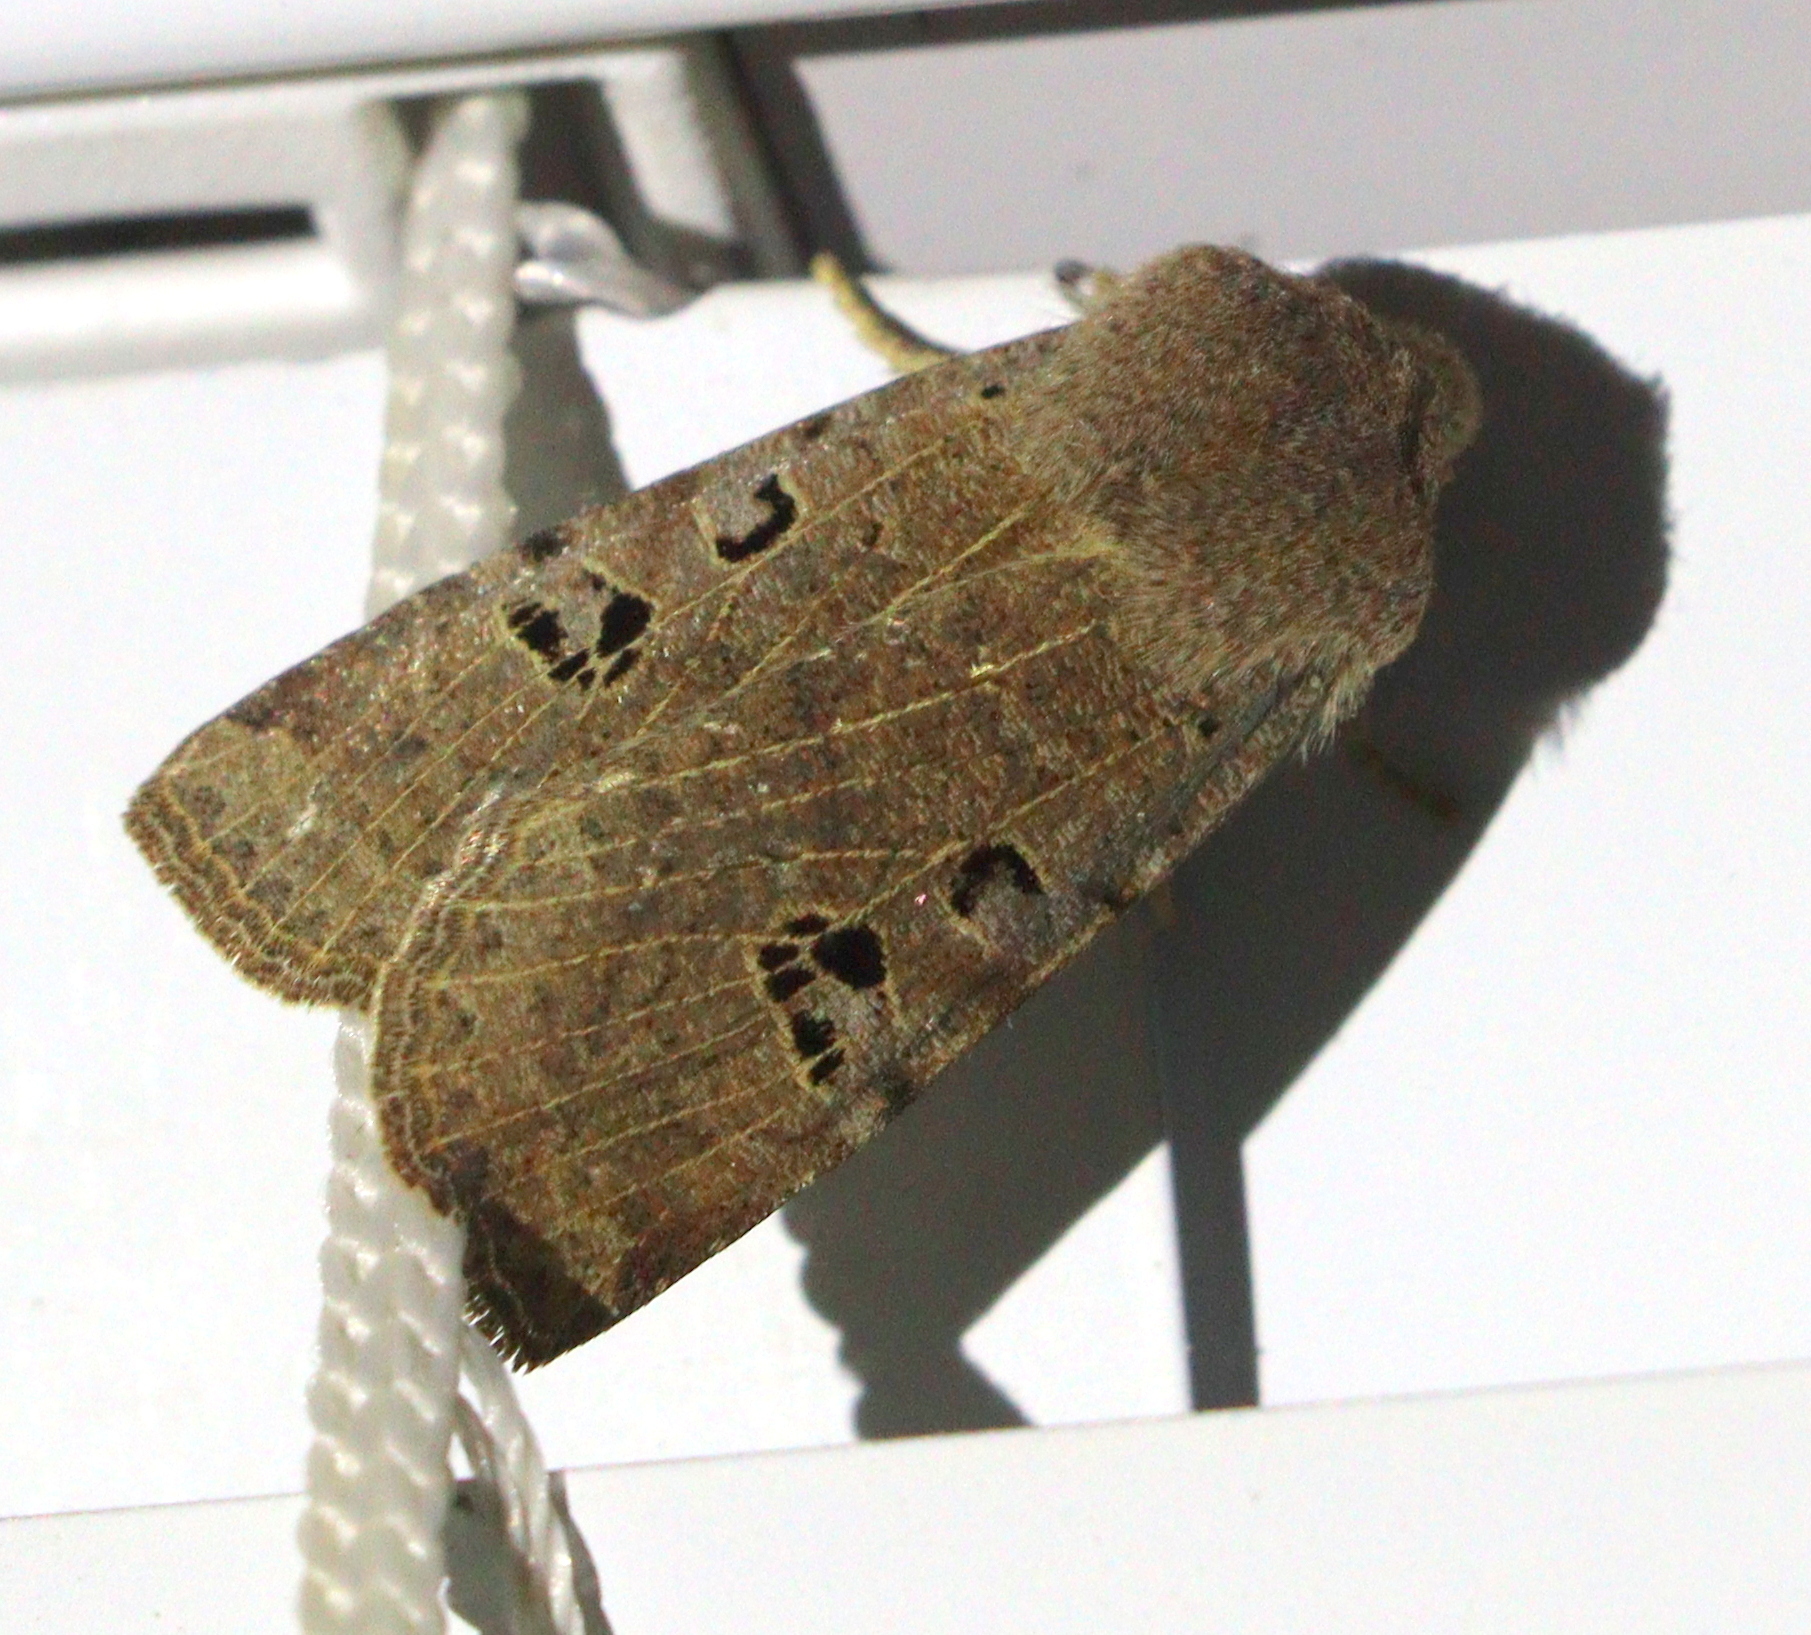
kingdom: Animalia
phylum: Arthropoda
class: Insecta
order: Lepidoptera
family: Noctuidae
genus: Conistra
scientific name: Conistra rubiginosa
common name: Black-spotted chestnut
